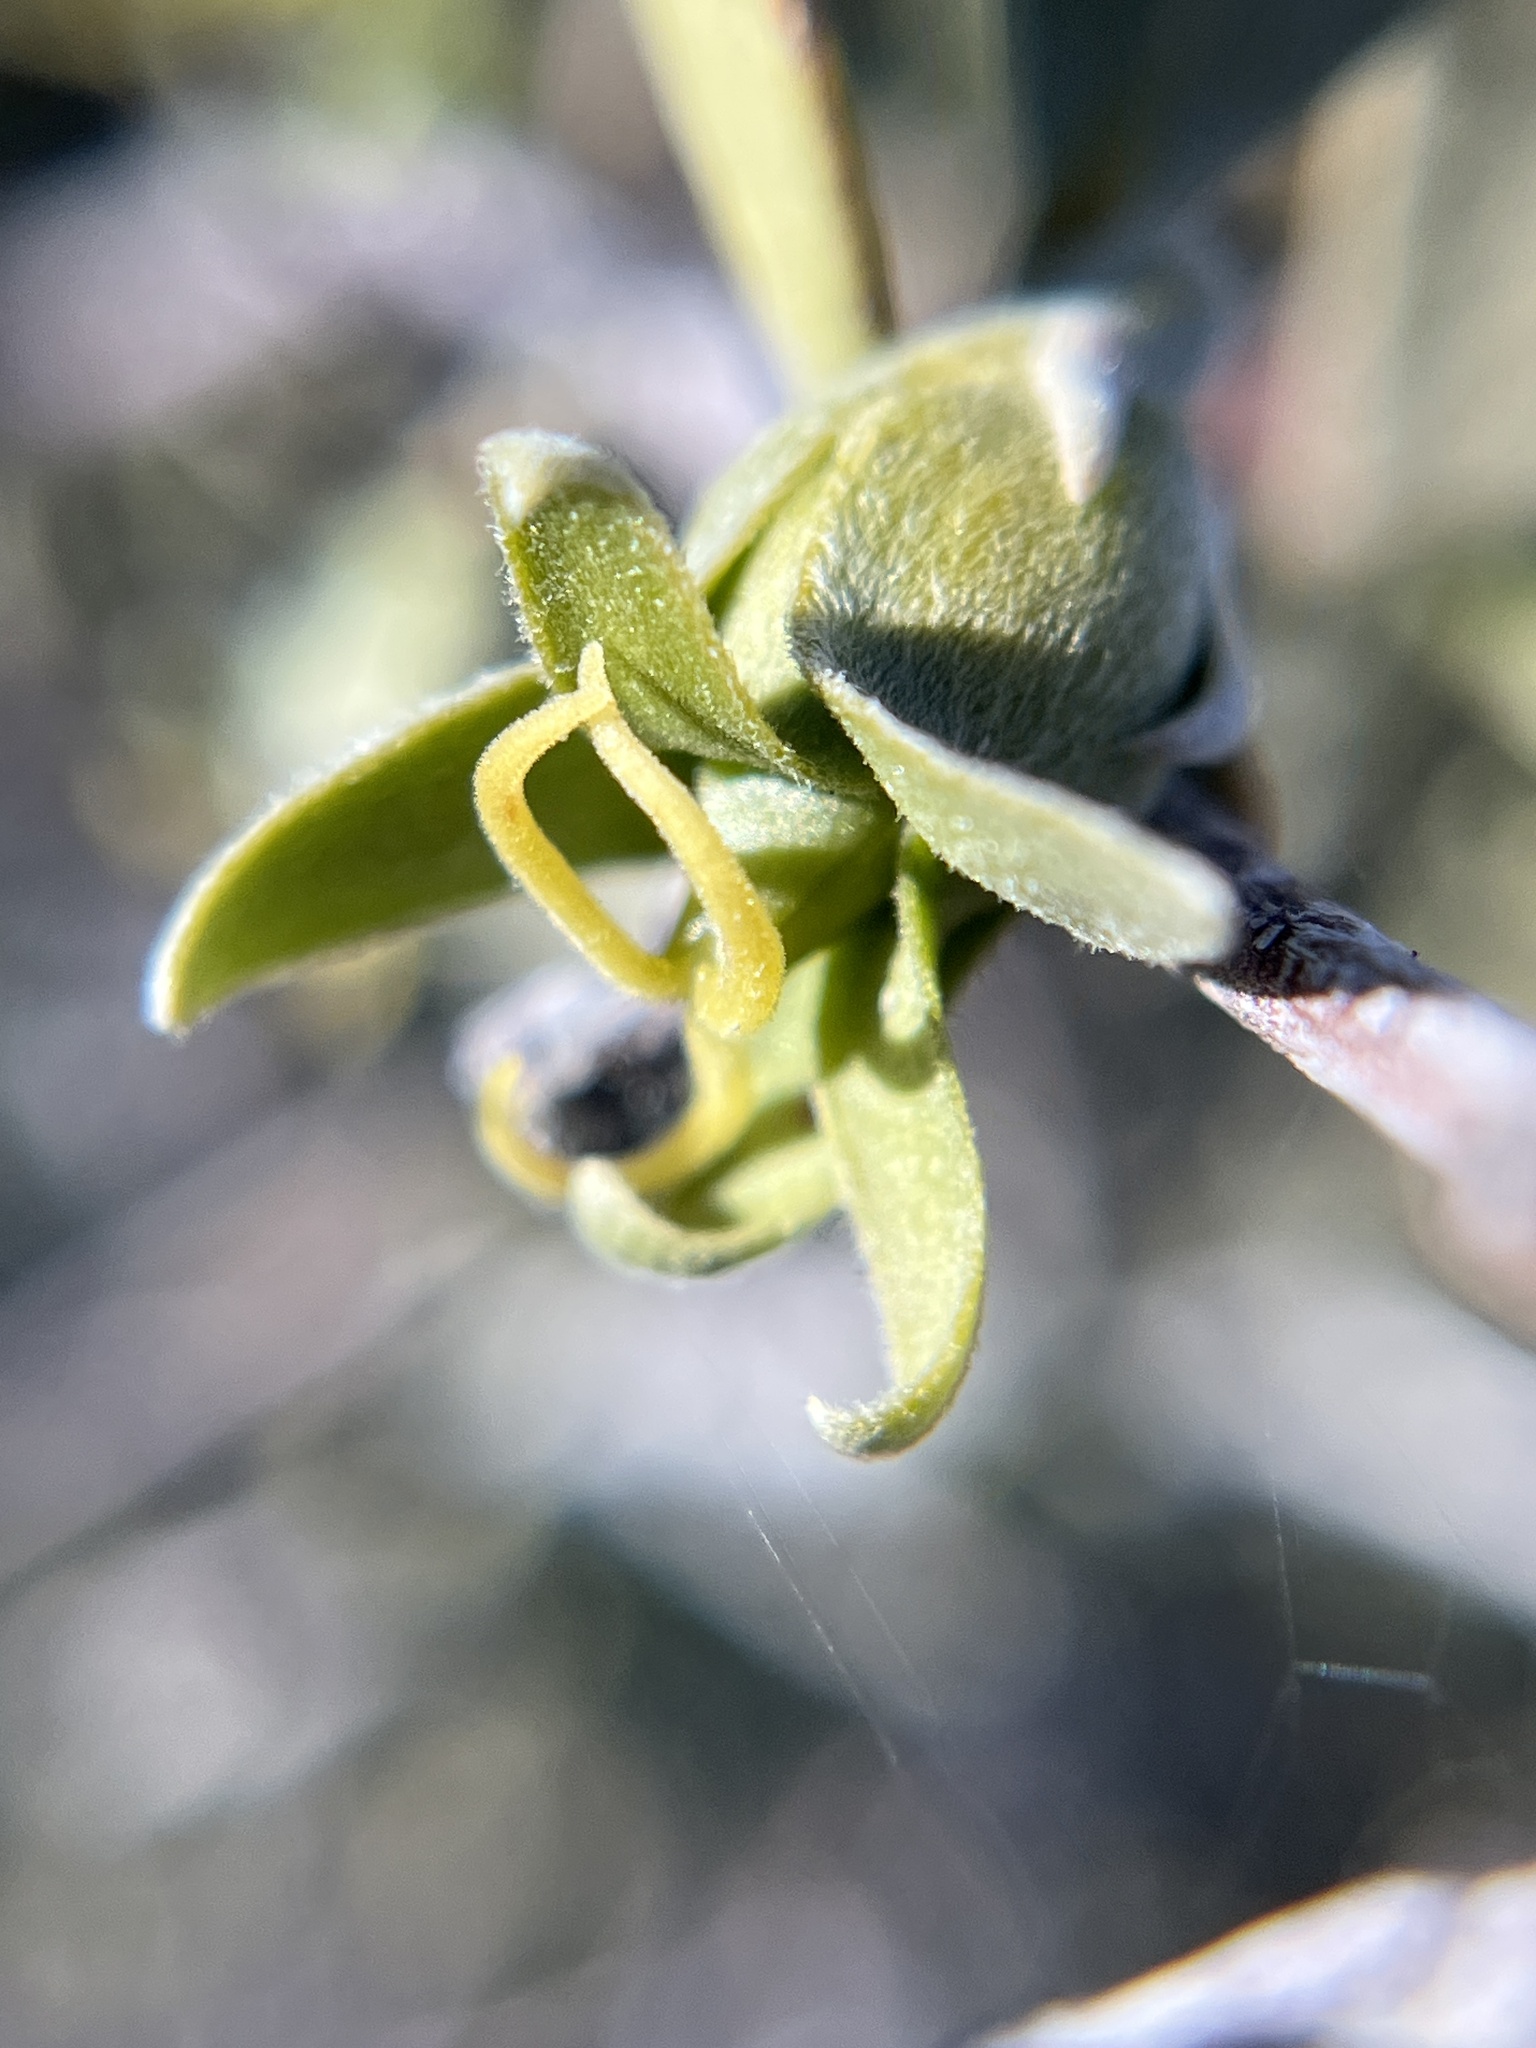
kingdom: Plantae
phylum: Tracheophyta
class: Magnoliopsida
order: Caryophyllales
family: Simmondsiaceae
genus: Simmondsia
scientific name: Simmondsia chinensis
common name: Jojoba
